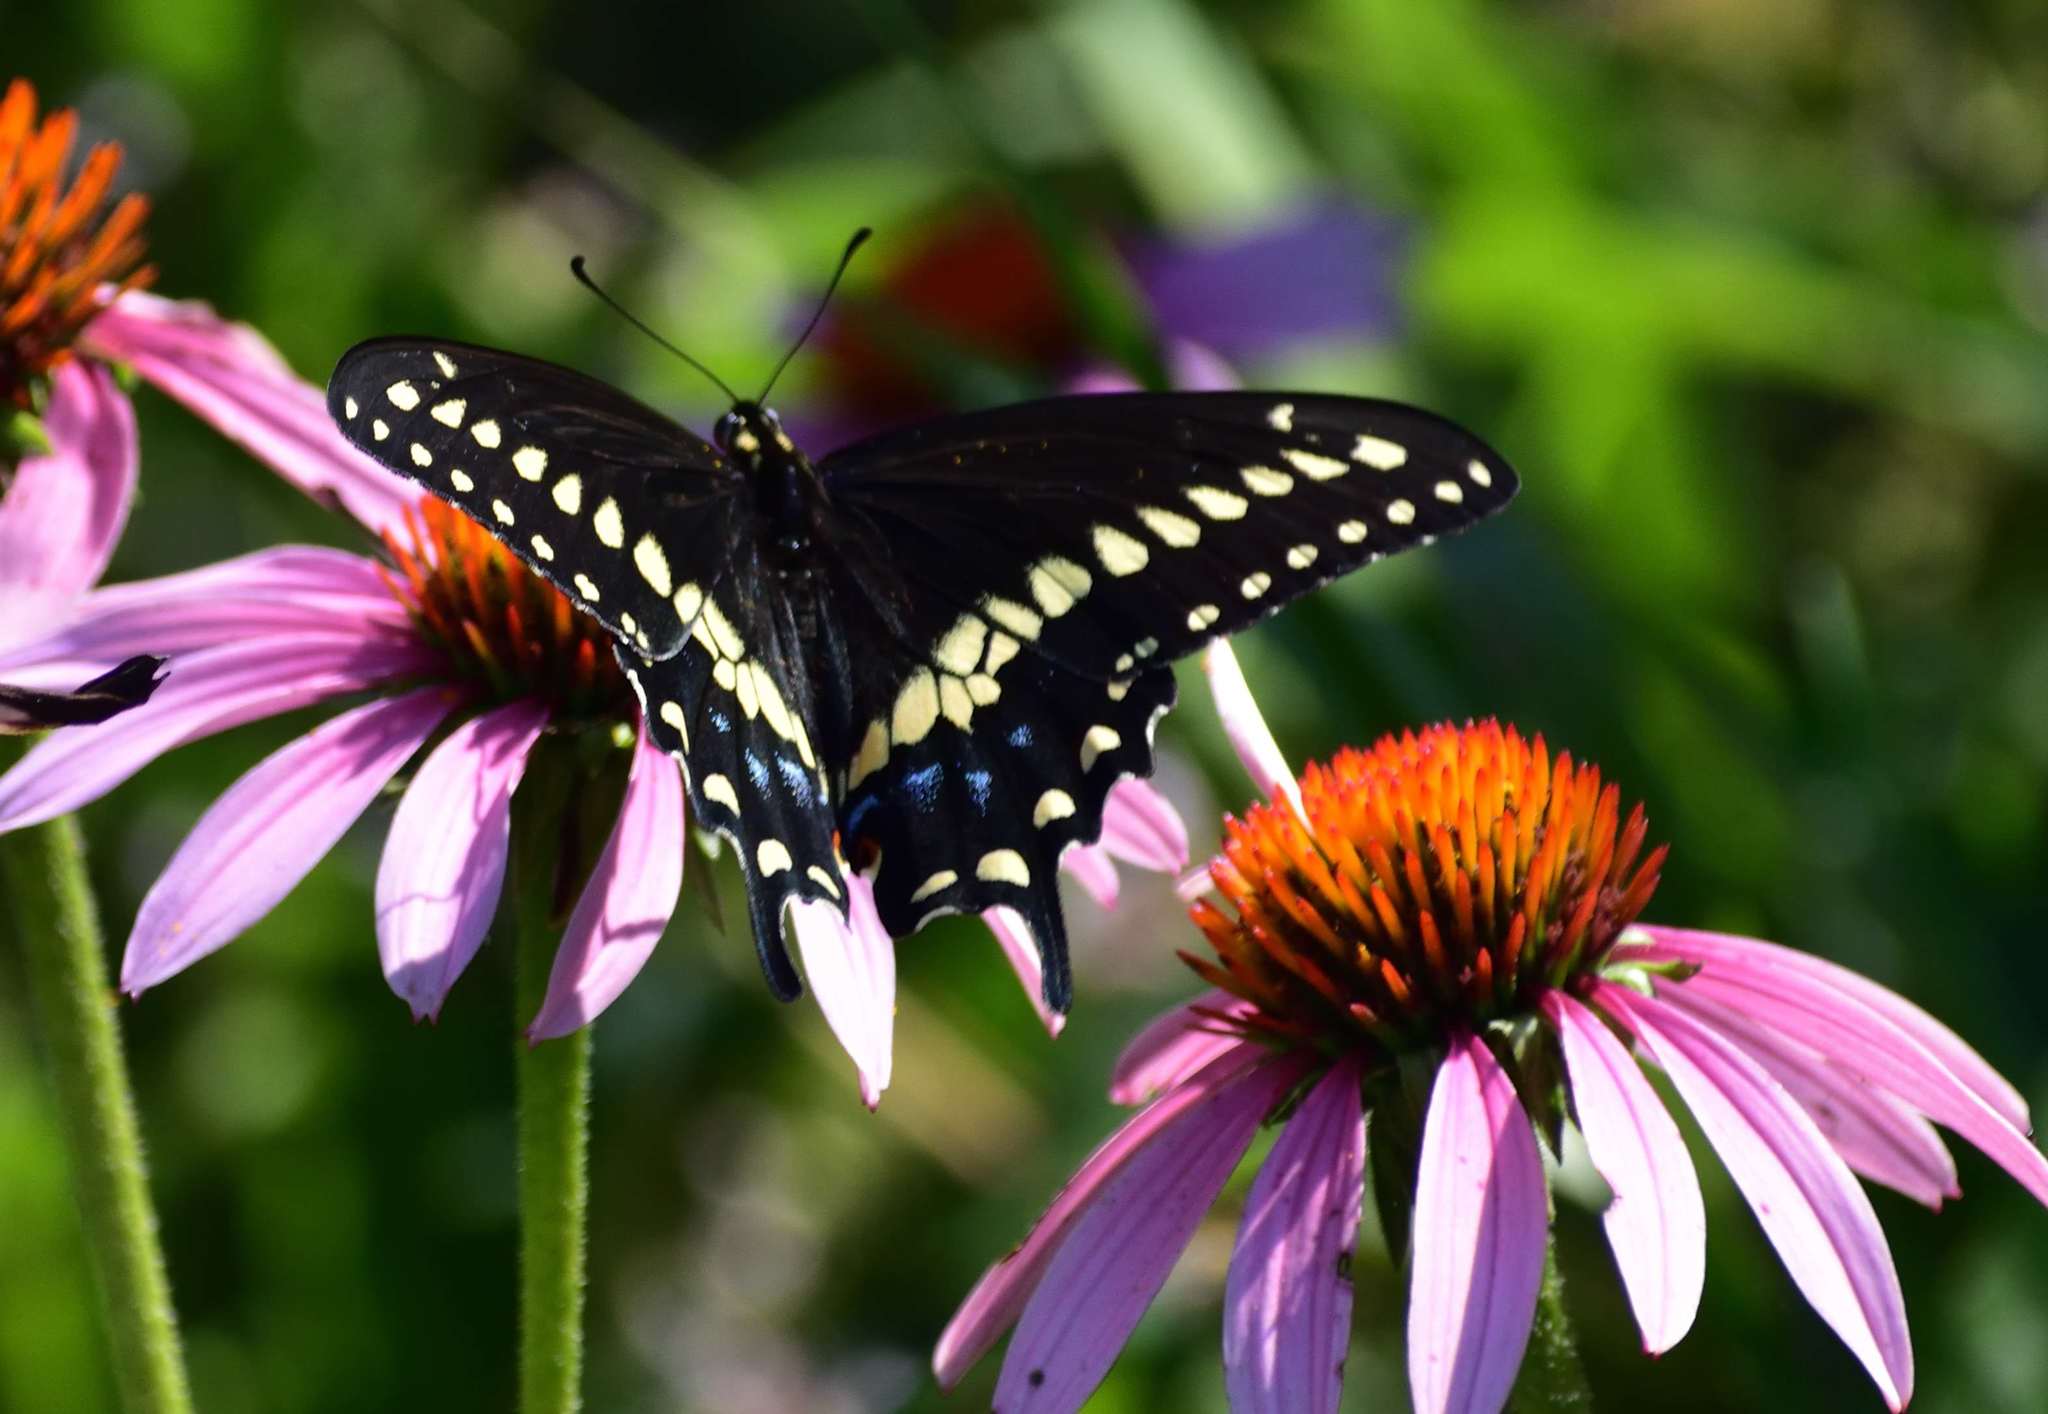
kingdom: Animalia
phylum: Arthropoda
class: Insecta
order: Lepidoptera
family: Papilionidae
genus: Papilio
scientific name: Papilio polyxenes
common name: Black swallowtail
